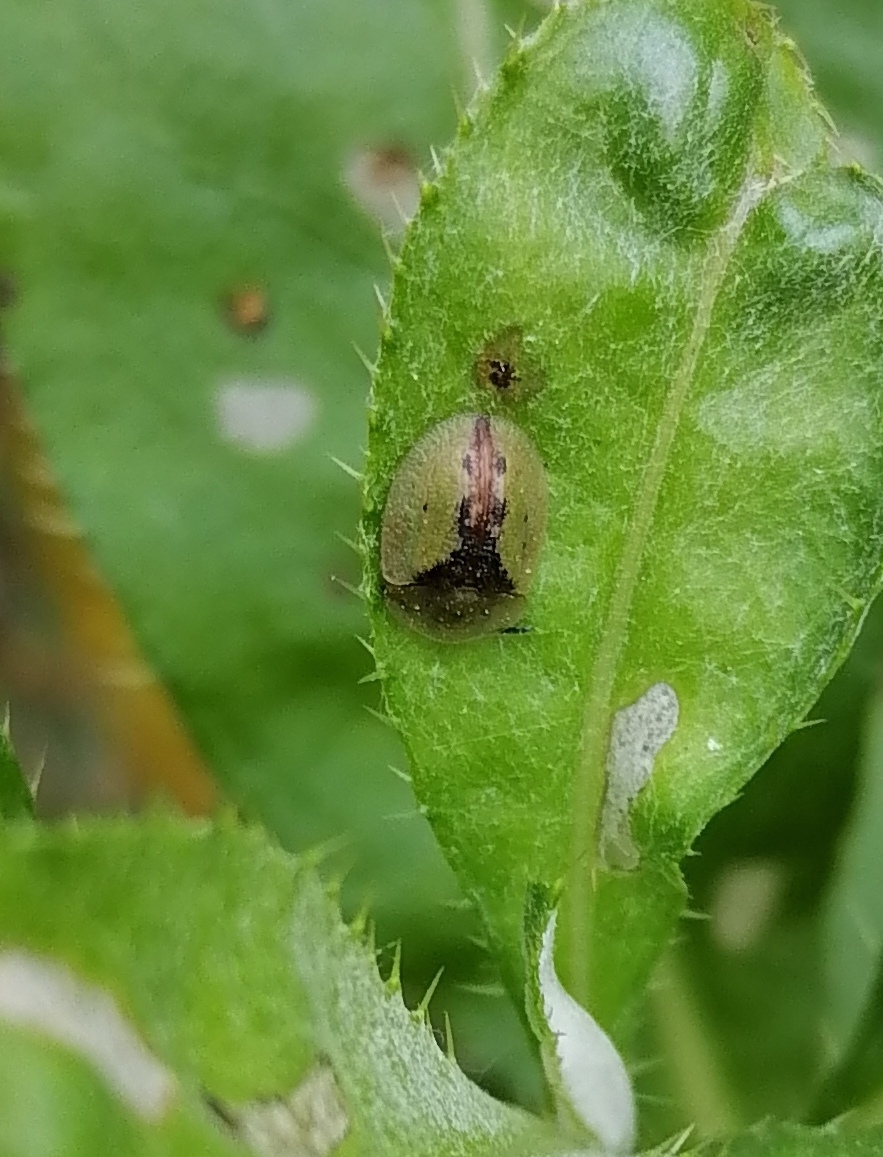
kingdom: Animalia
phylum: Arthropoda
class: Insecta
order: Coleoptera
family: Chrysomelidae
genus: Cassida
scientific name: Cassida vibex
